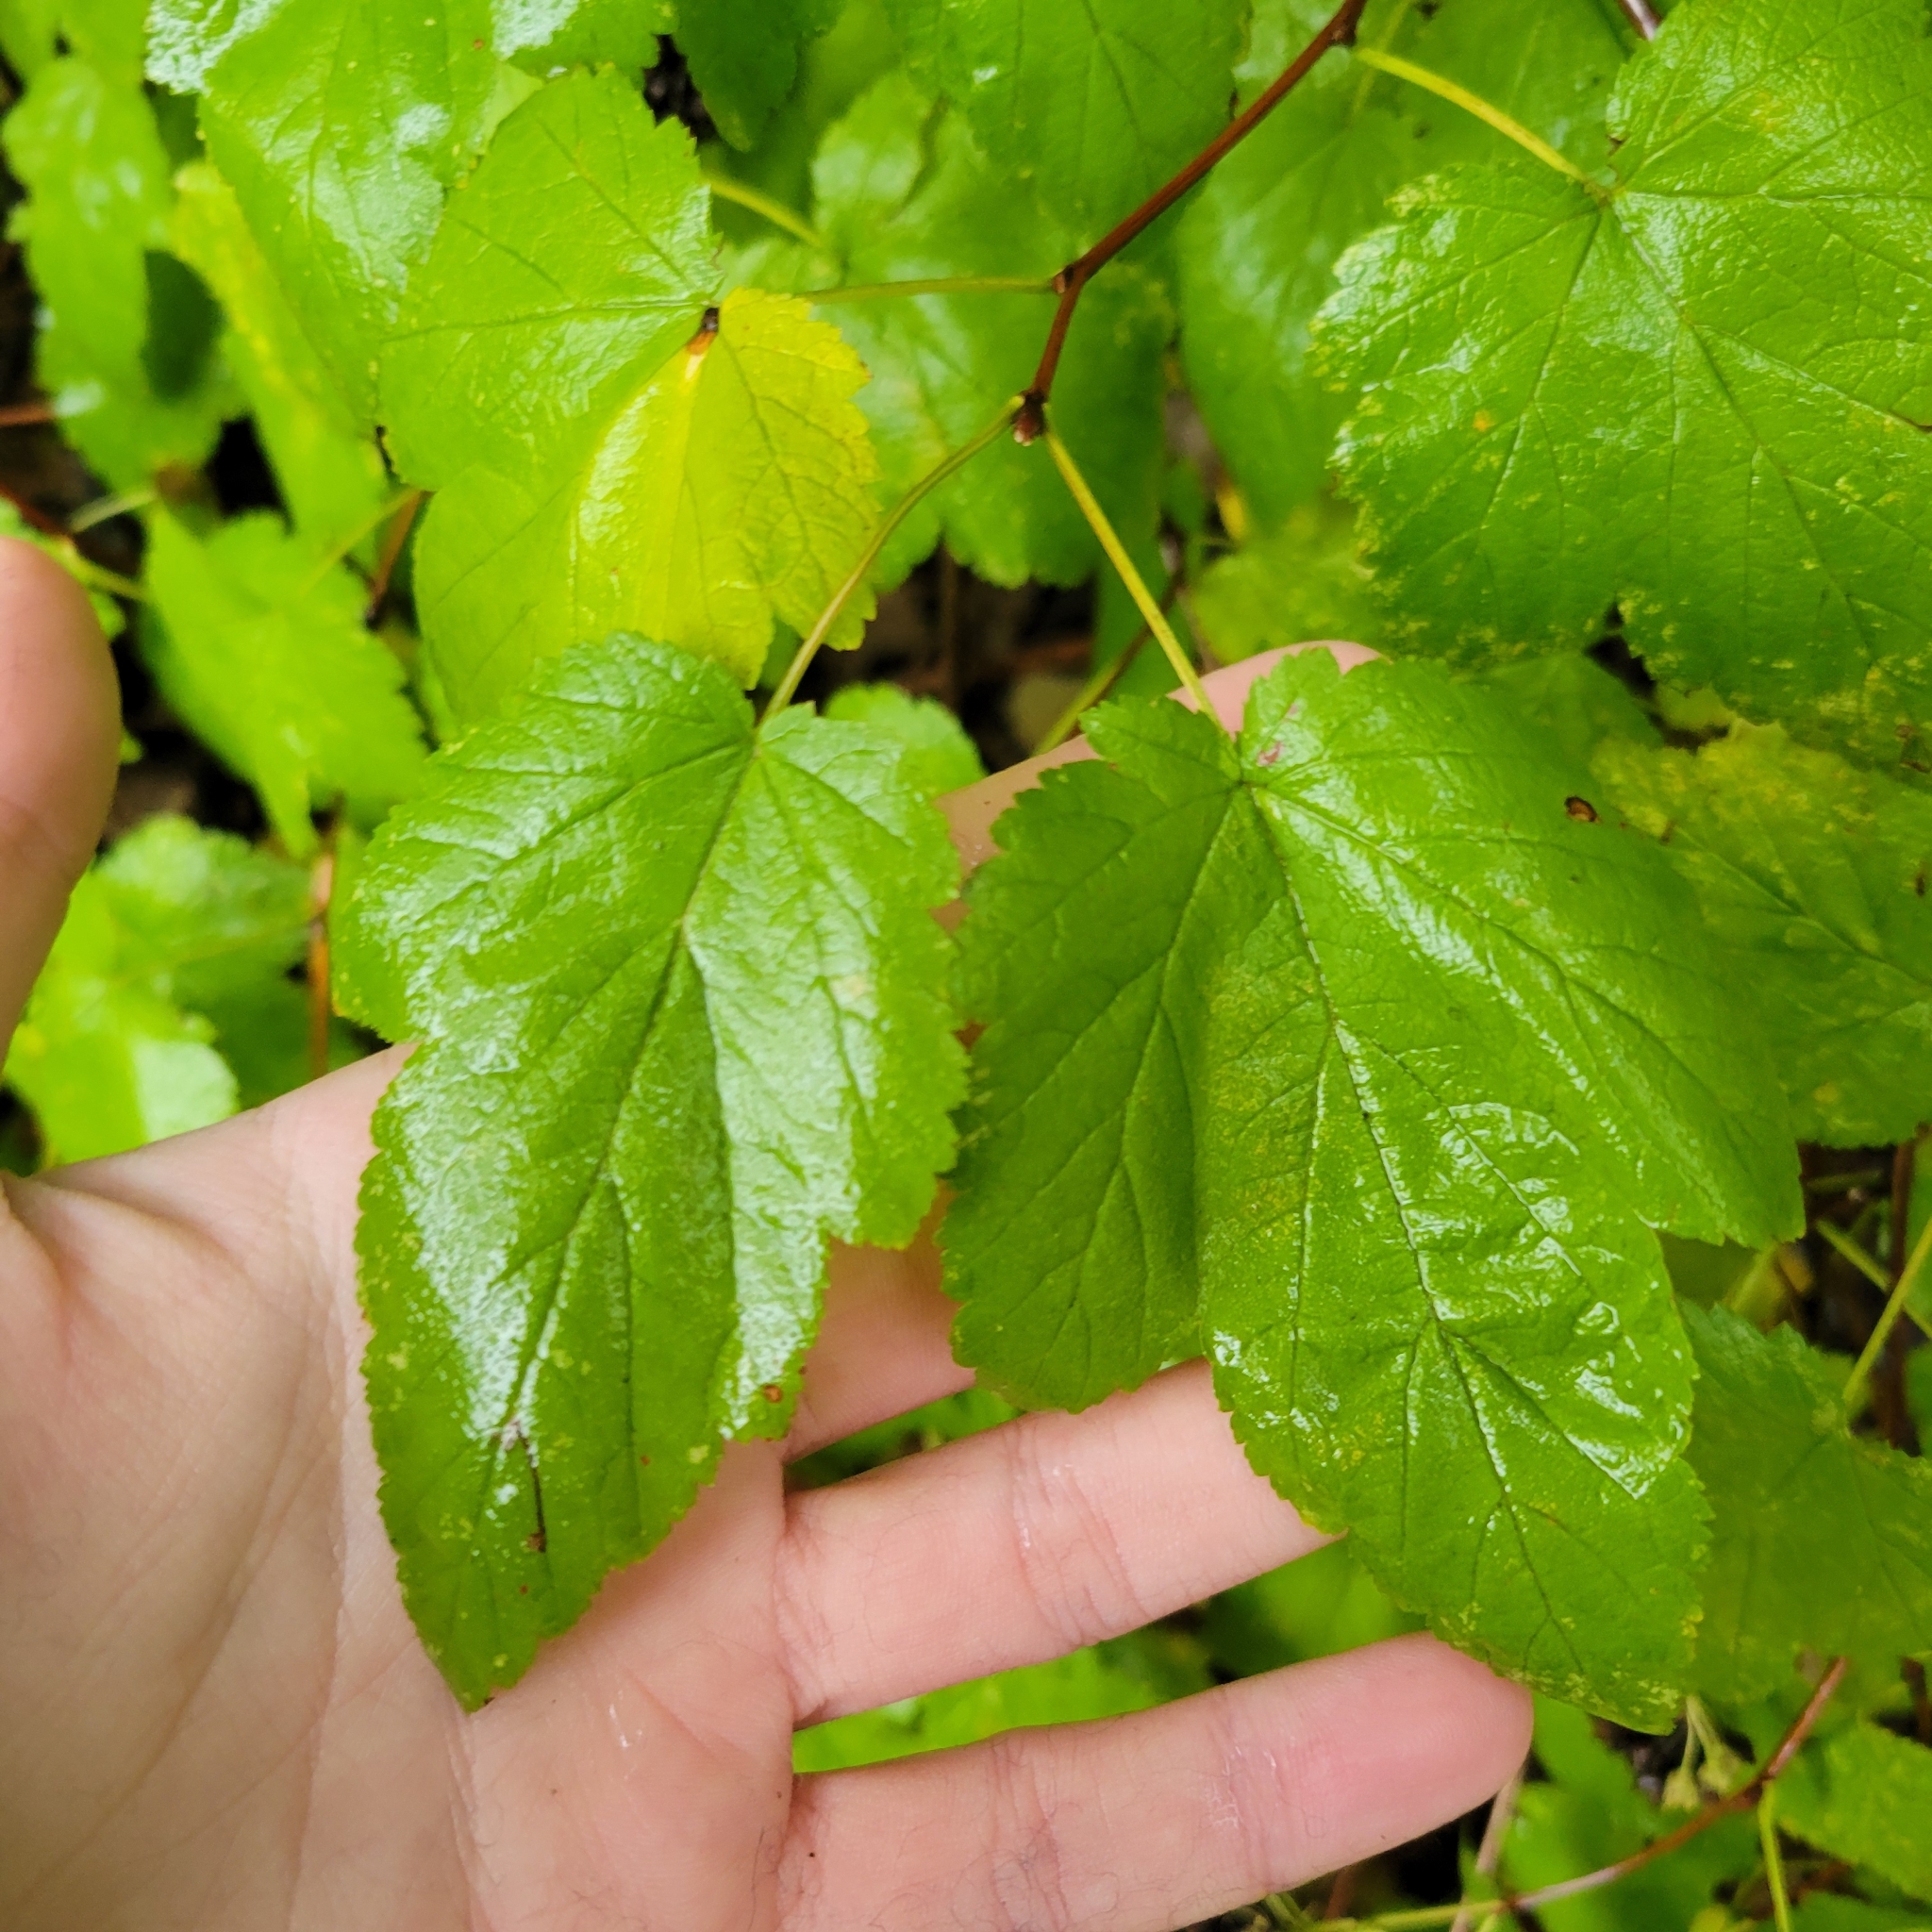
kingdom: Plantae
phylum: Tracheophyta
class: Magnoliopsida
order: Rosales
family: Rosaceae
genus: Physocarpus
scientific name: Physocarpus capitatus
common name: Pacific ninebark
